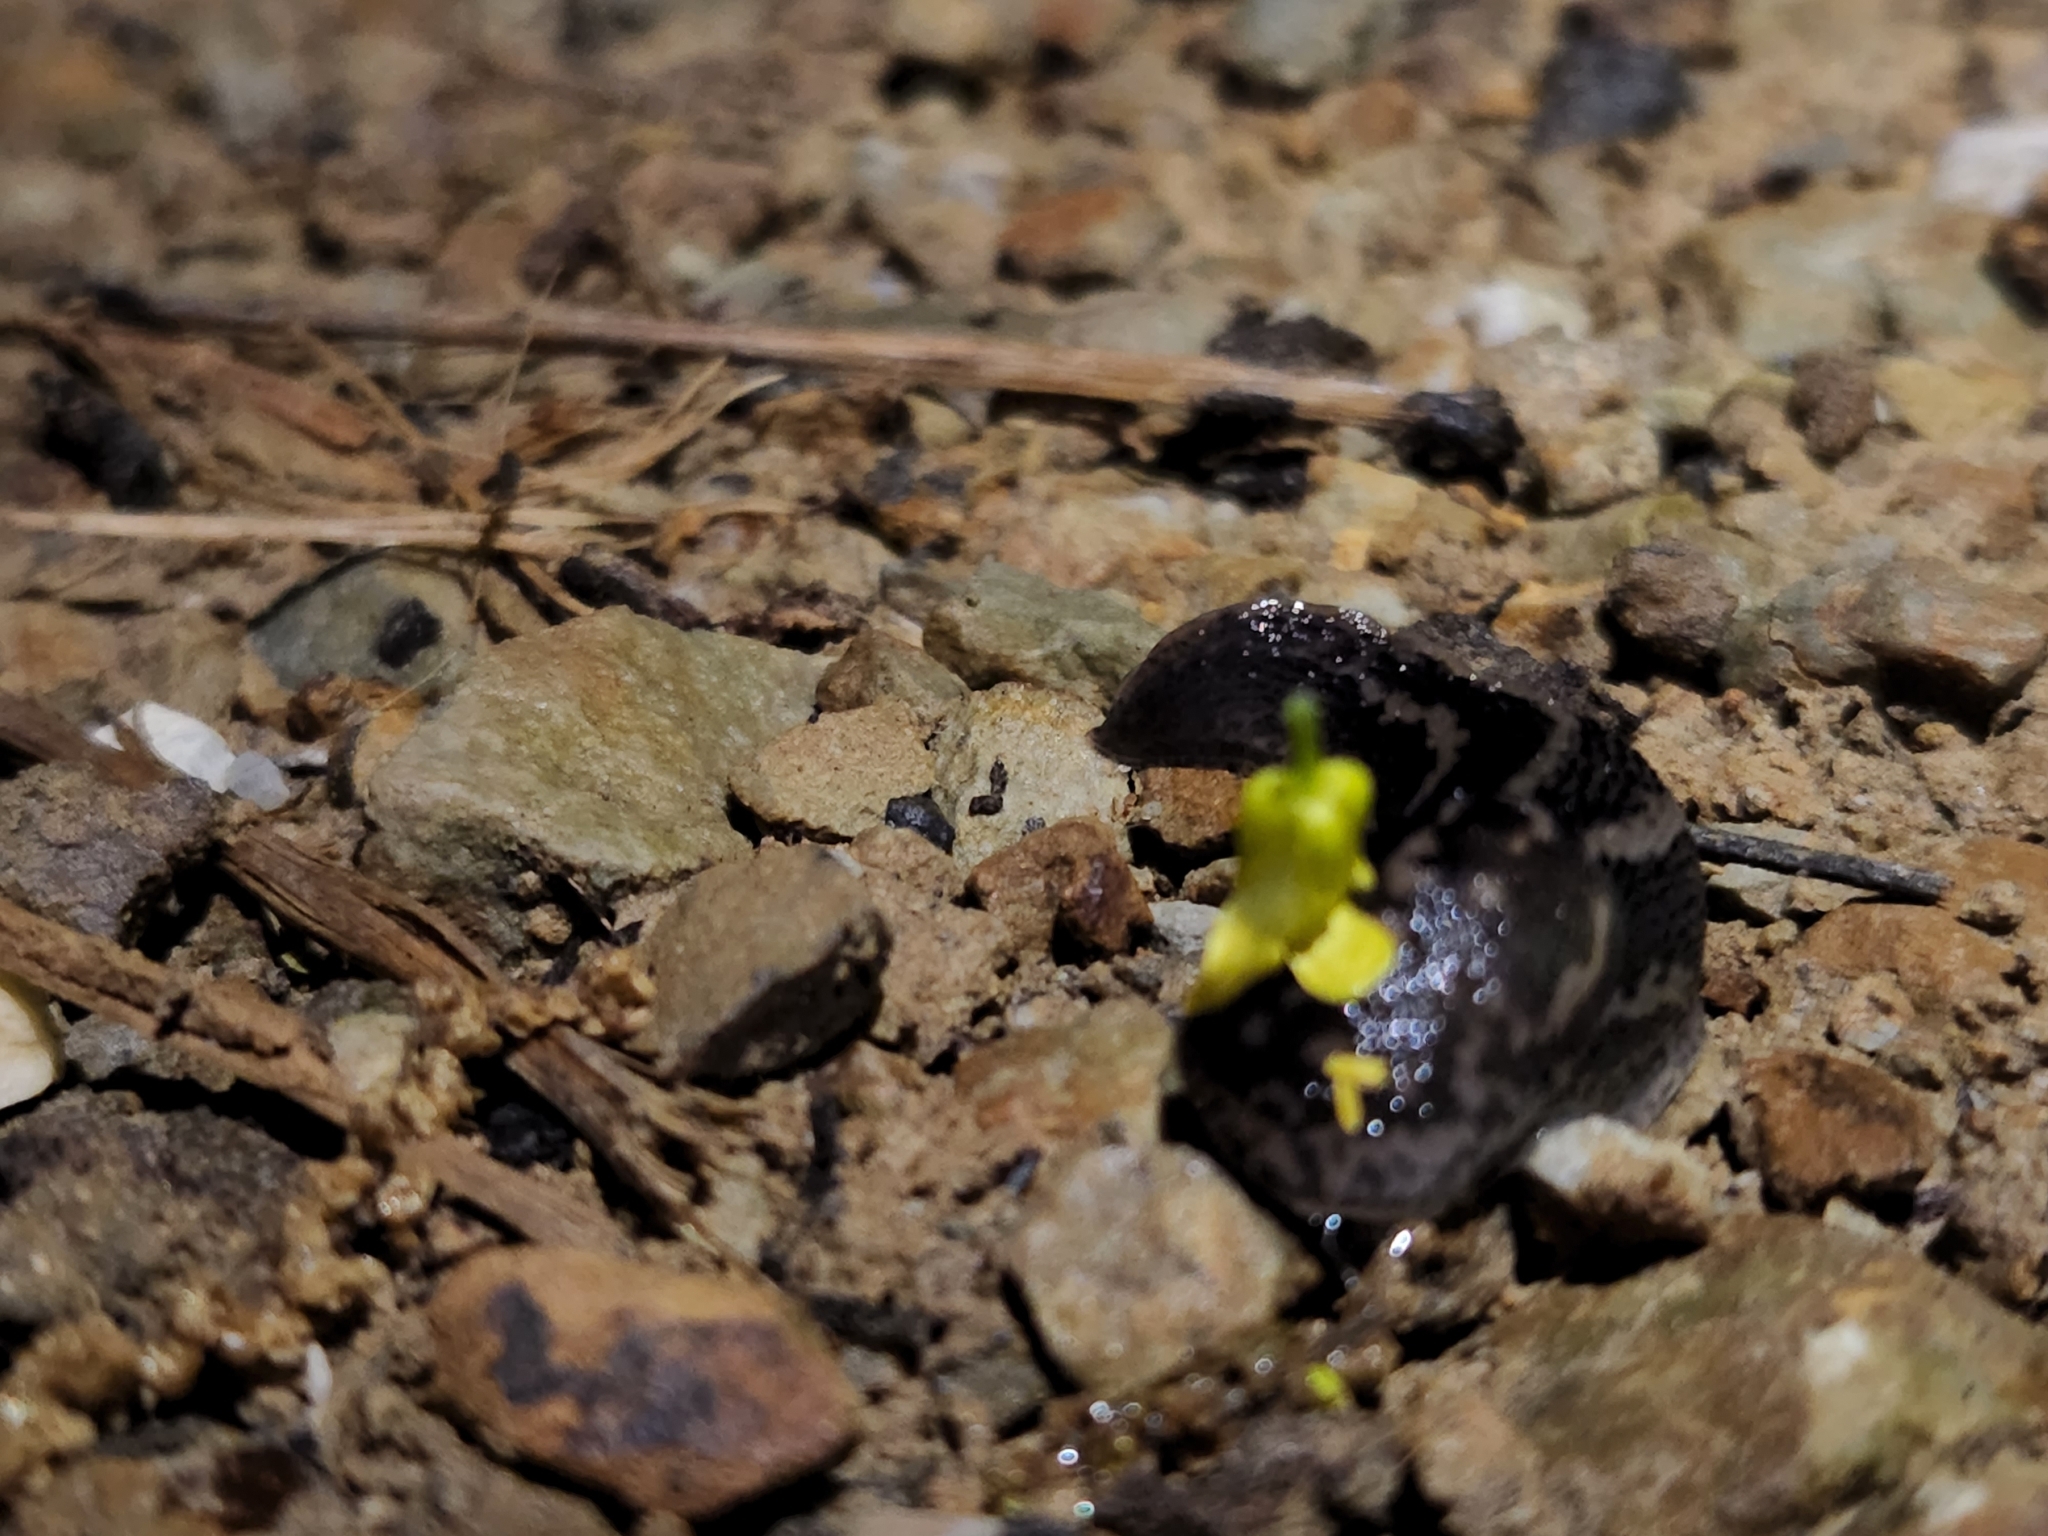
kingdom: Animalia
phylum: Mollusca
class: Gastropoda
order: Stylommatophora
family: Limacidae
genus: Limax
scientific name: Limax maximus
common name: Great grey slug
